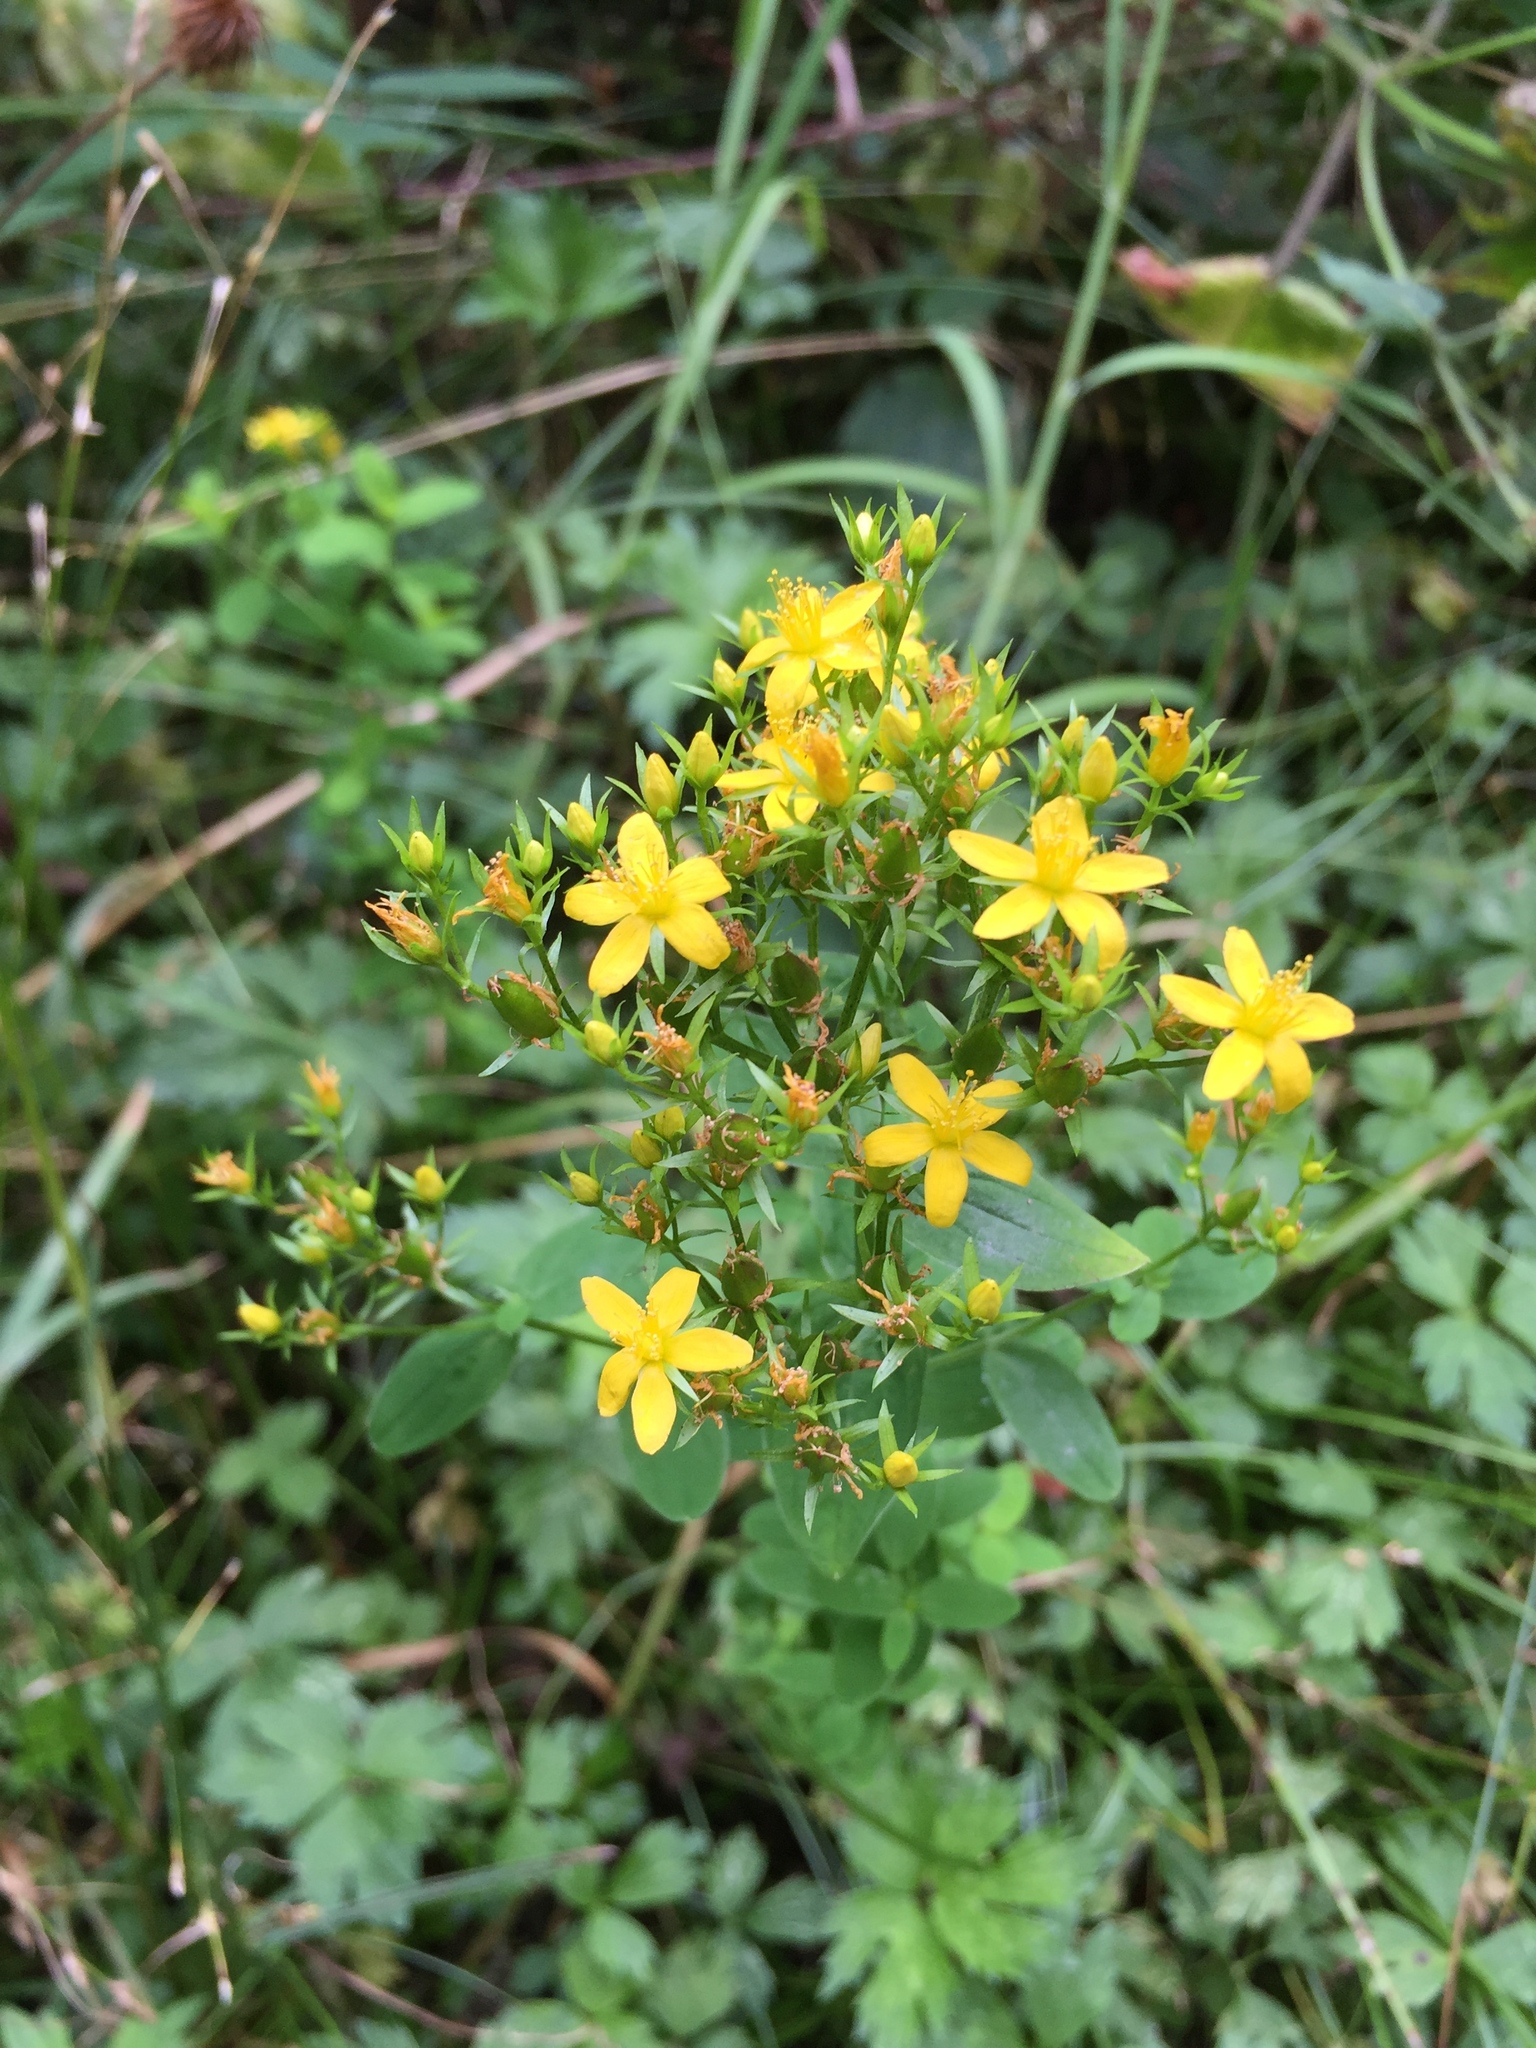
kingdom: Plantae
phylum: Tracheophyta
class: Magnoliopsida
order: Malpighiales
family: Hypericaceae
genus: Hypericum
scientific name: Hypericum tetrapterum
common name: Square-stalked st. john's-wort
